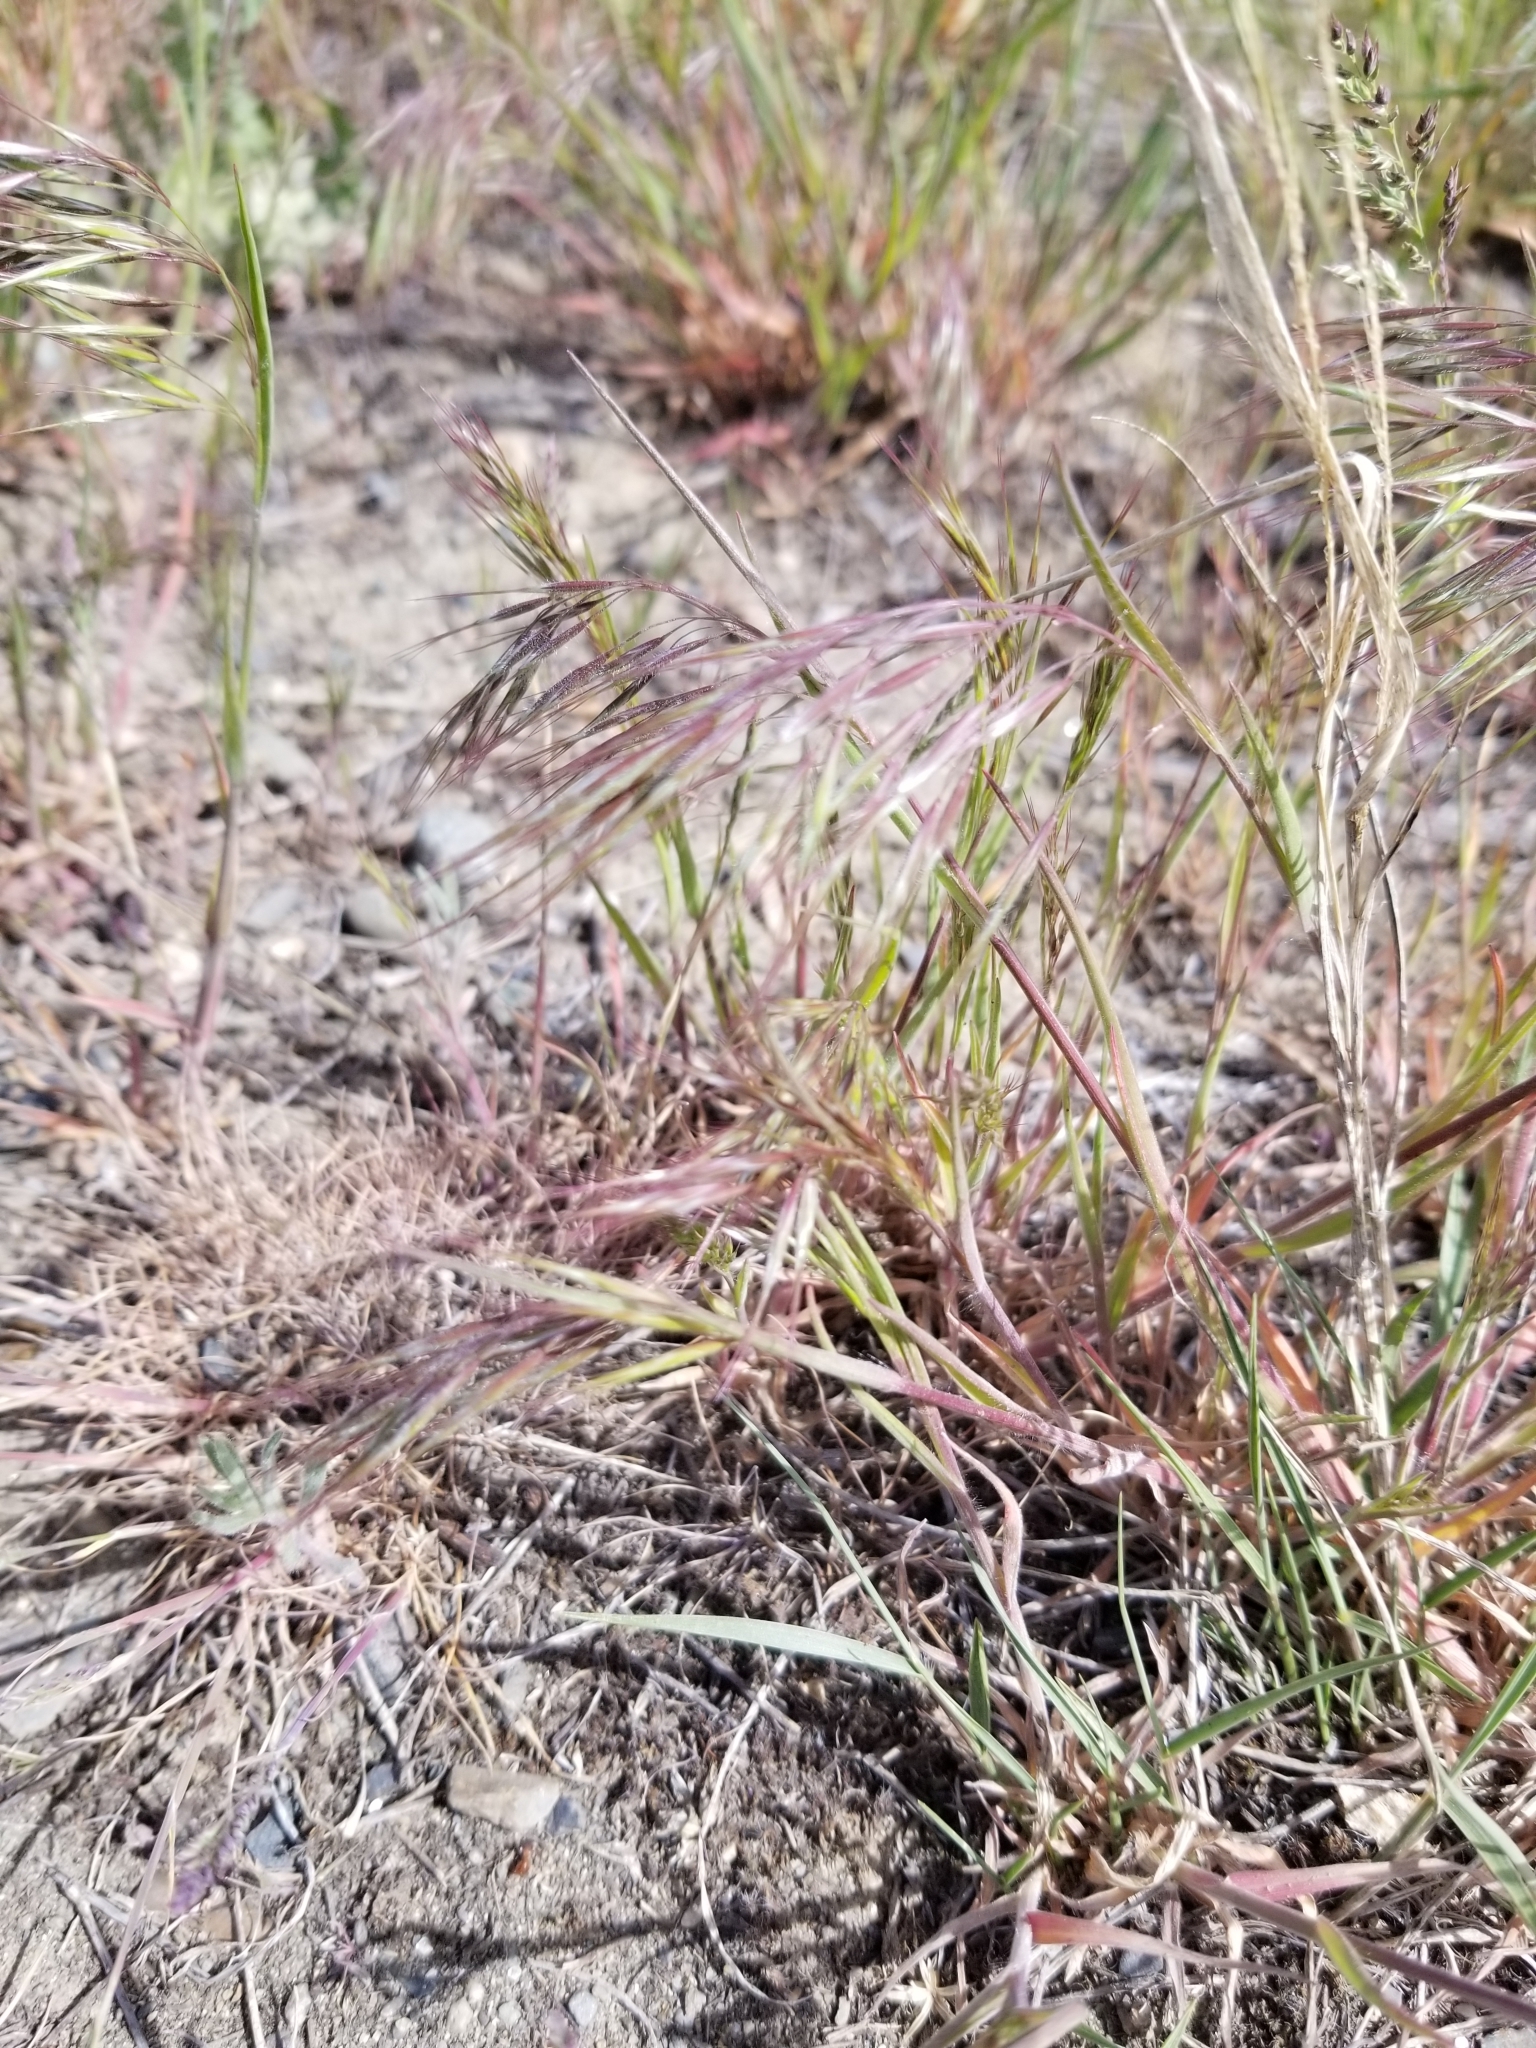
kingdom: Plantae
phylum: Tracheophyta
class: Liliopsida
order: Poales
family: Poaceae
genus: Bromus
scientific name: Bromus tectorum
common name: Cheatgrass
